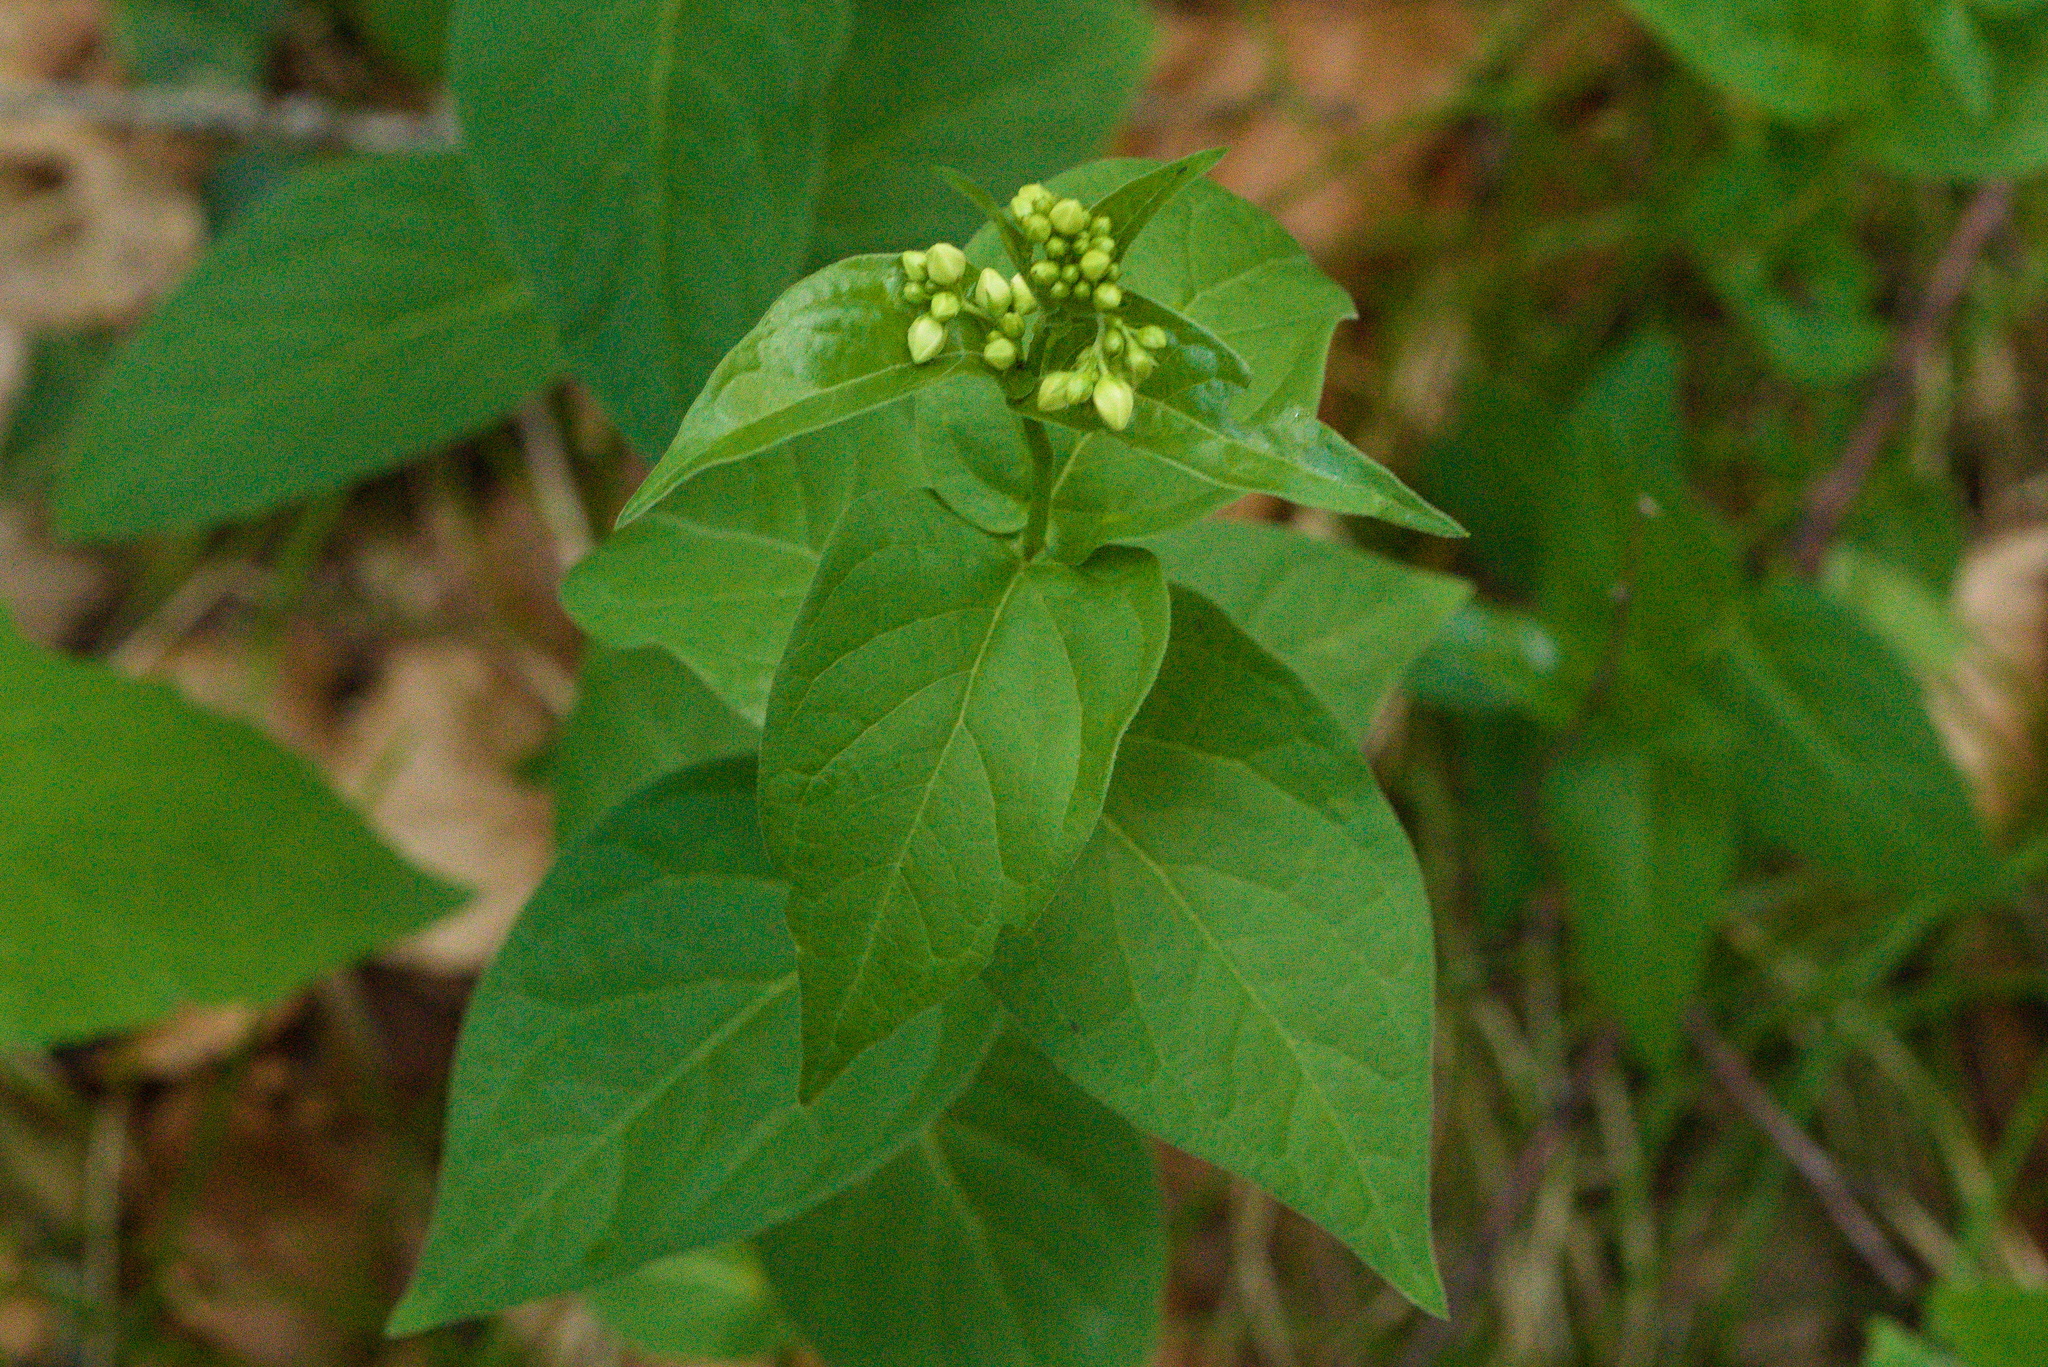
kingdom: Plantae
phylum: Tracheophyta
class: Magnoliopsida
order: Gentianales
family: Apocynaceae
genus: Vincetoxicum
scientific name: Vincetoxicum hirundinaria
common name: White swallowwort
